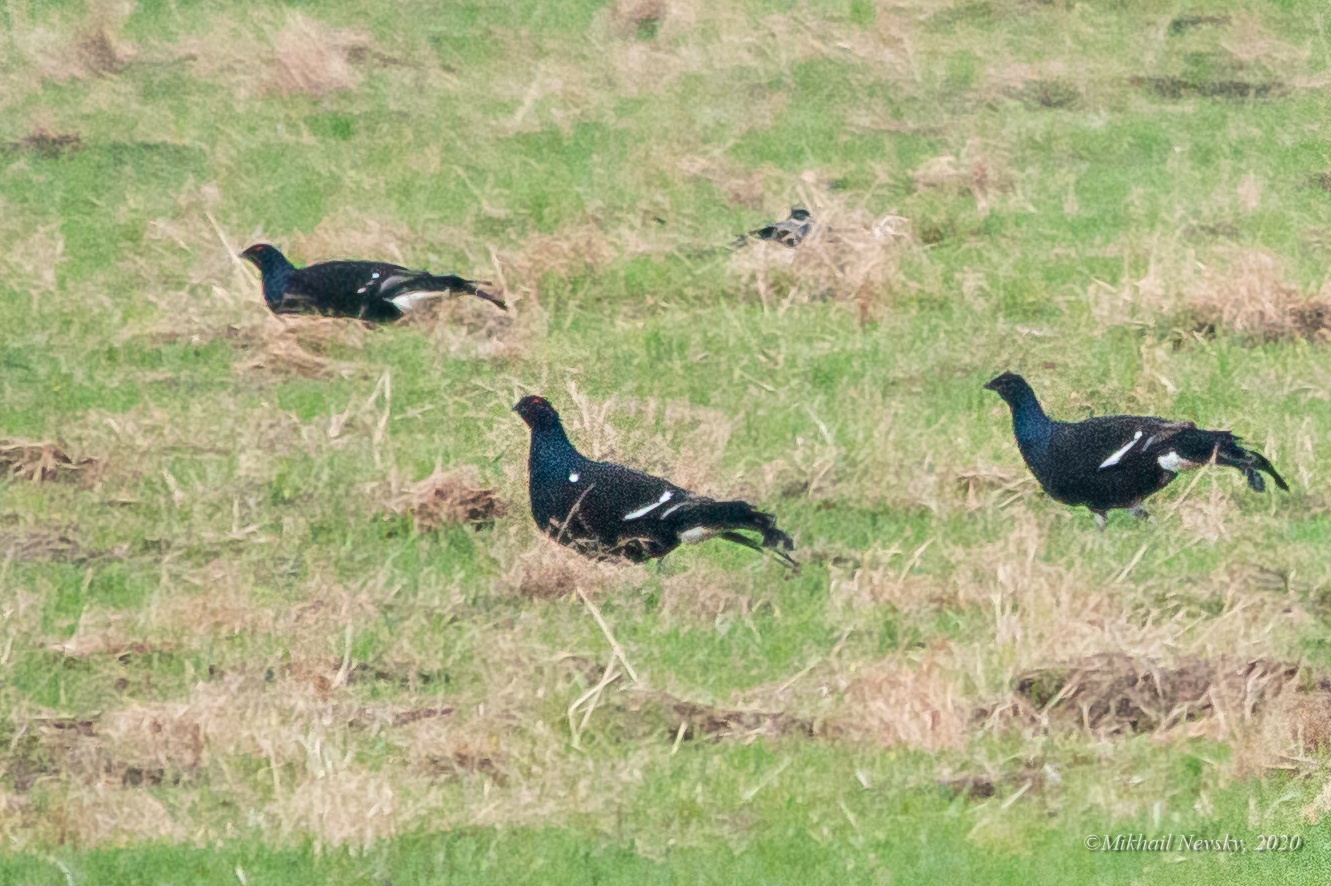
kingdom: Animalia
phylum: Chordata
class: Aves
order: Galliformes
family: Phasianidae
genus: Lyrurus
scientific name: Lyrurus tetrix
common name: Black grouse
